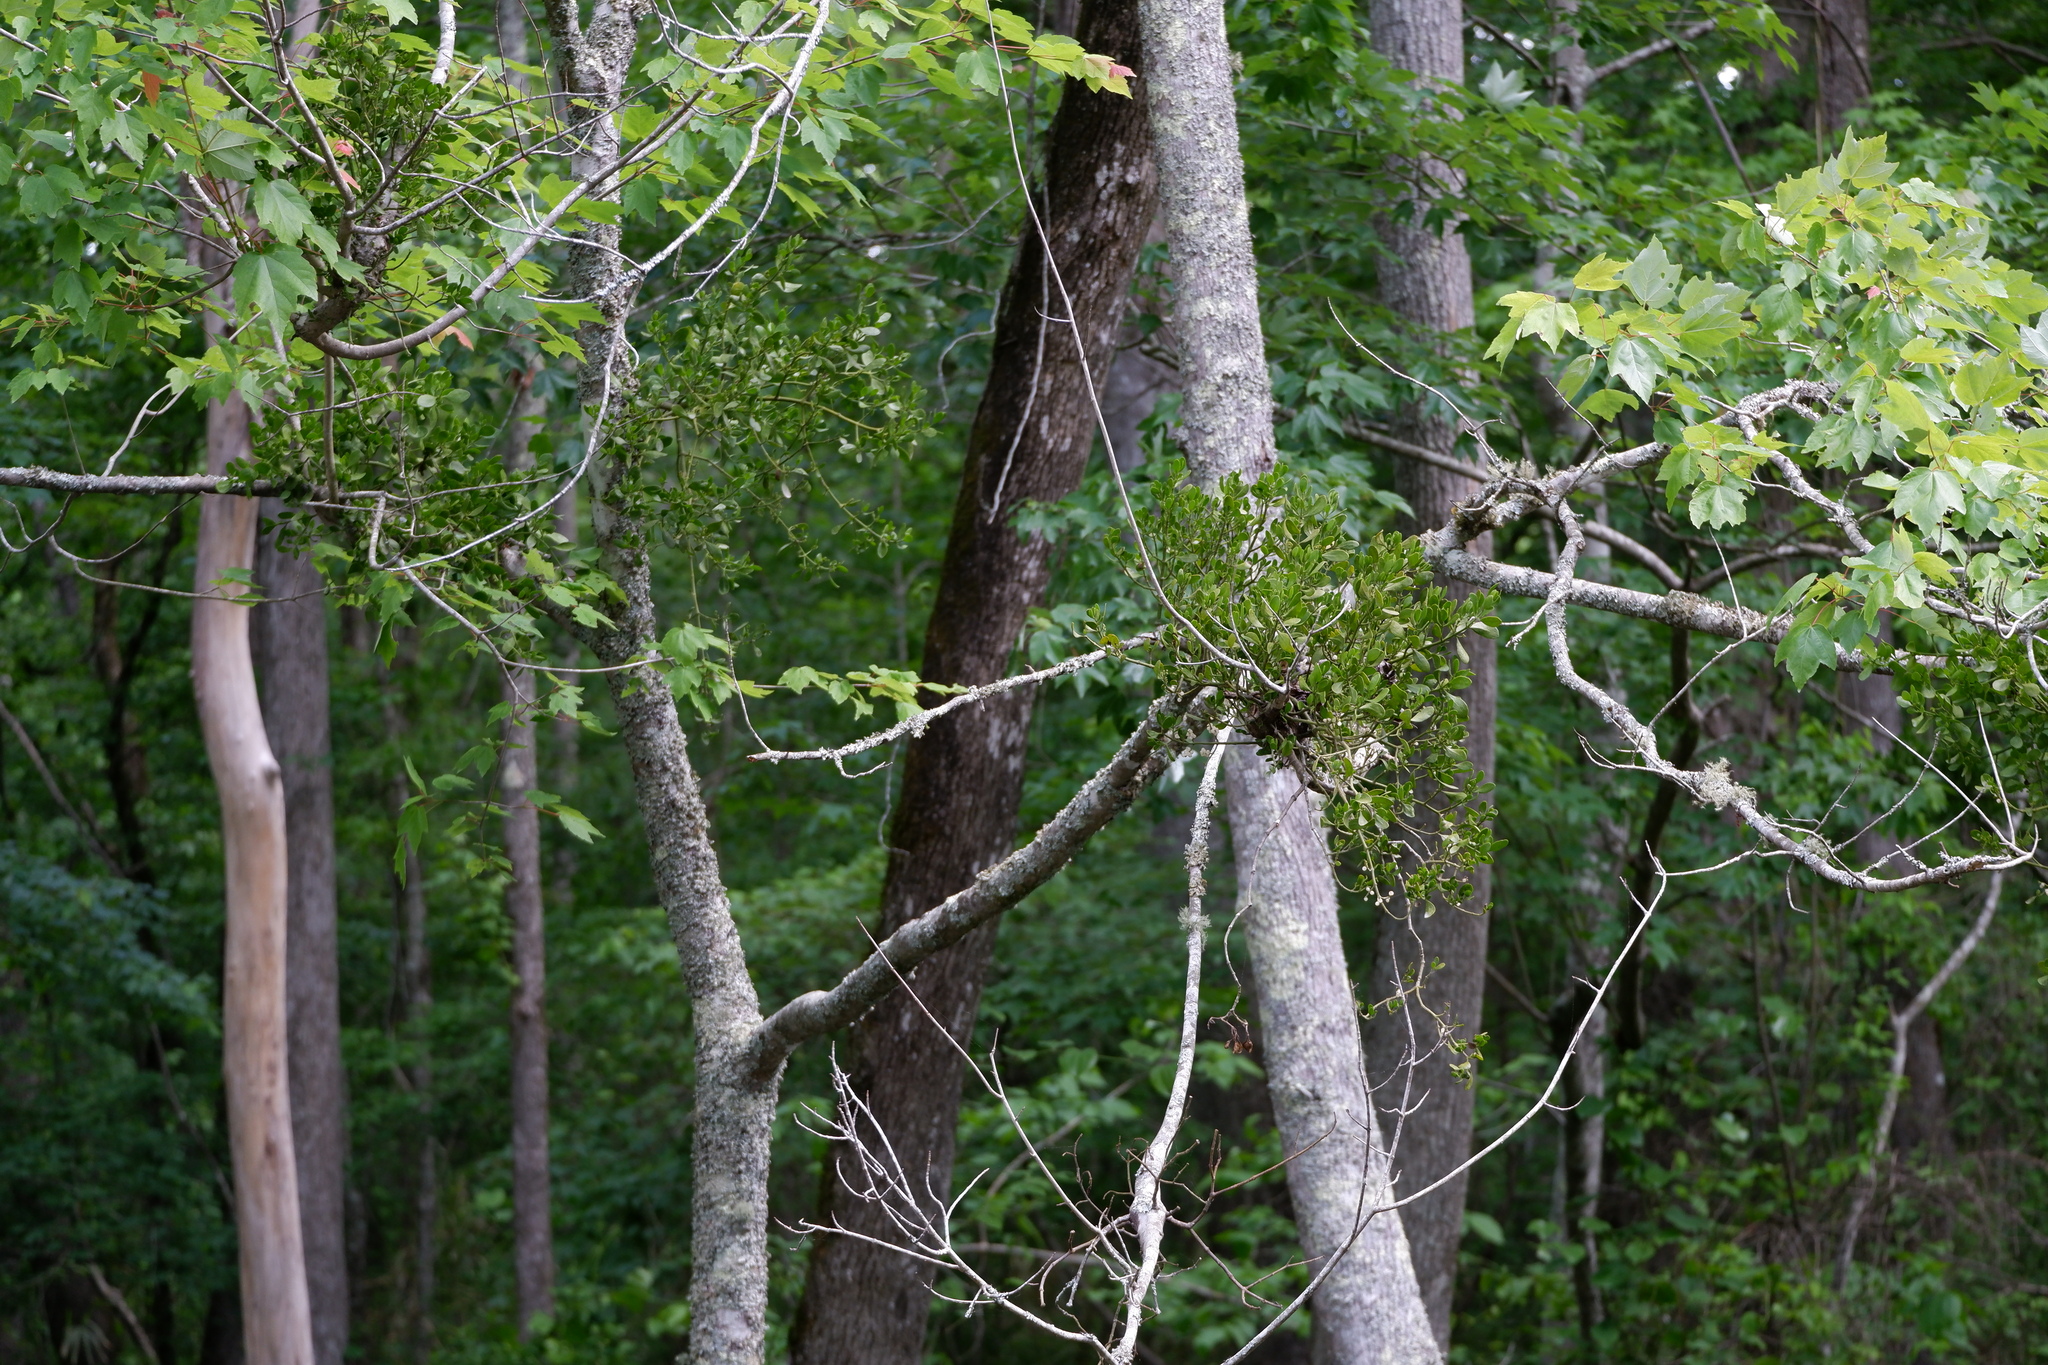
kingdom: Plantae
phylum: Tracheophyta
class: Magnoliopsida
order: Santalales
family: Viscaceae
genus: Phoradendron
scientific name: Phoradendron leucarpum
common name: Pacific mistletoe
